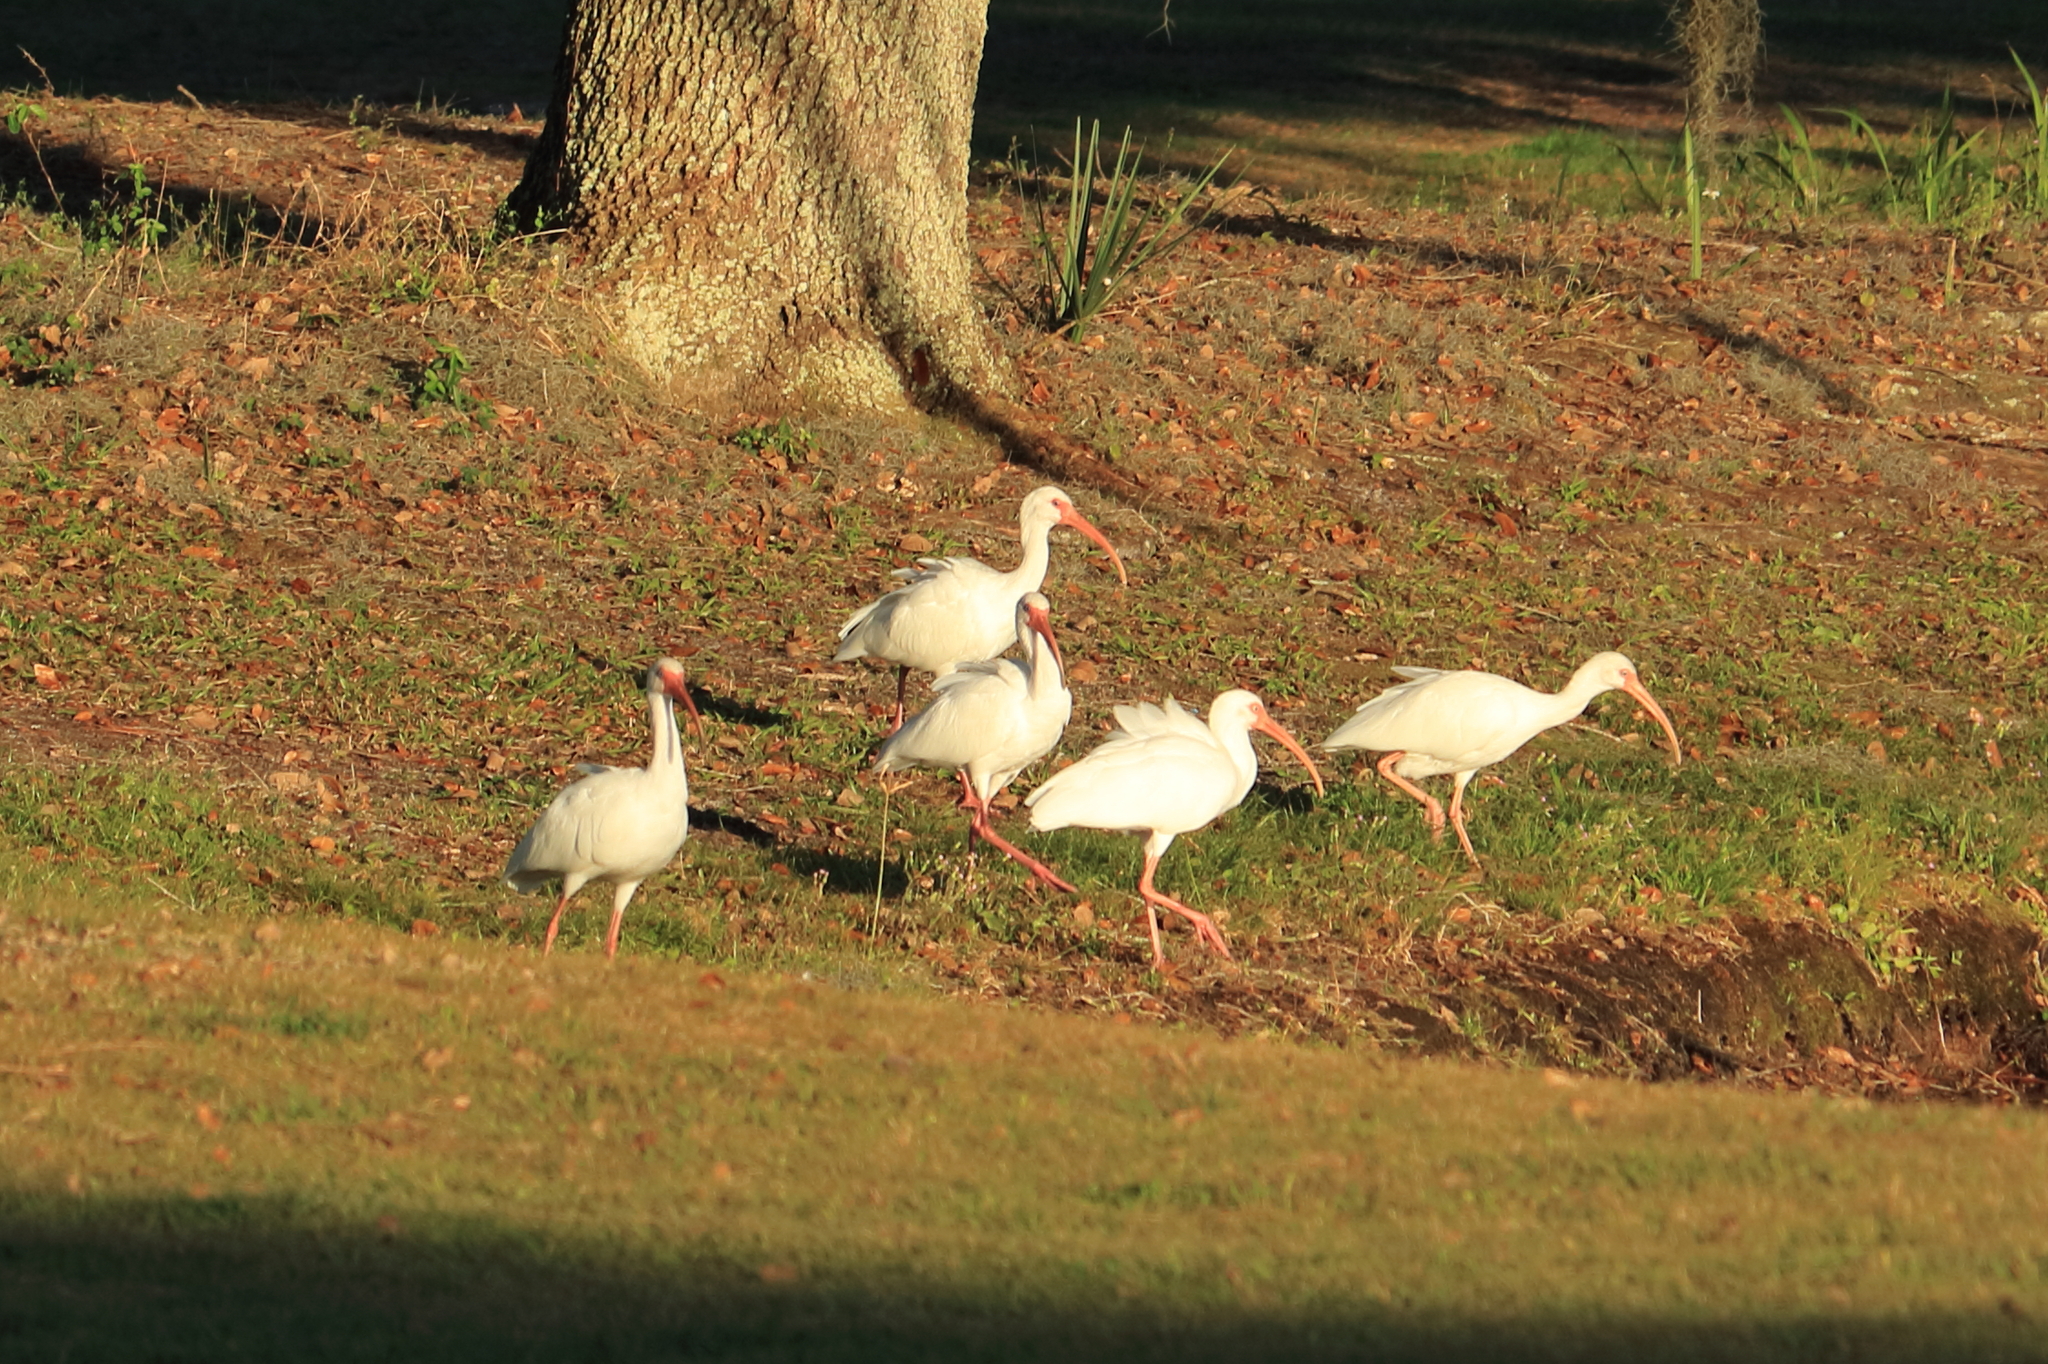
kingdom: Animalia
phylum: Chordata
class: Aves
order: Pelecaniformes
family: Threskiornithidae
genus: Eudocimus
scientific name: Eudocimus albus
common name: White ibis
